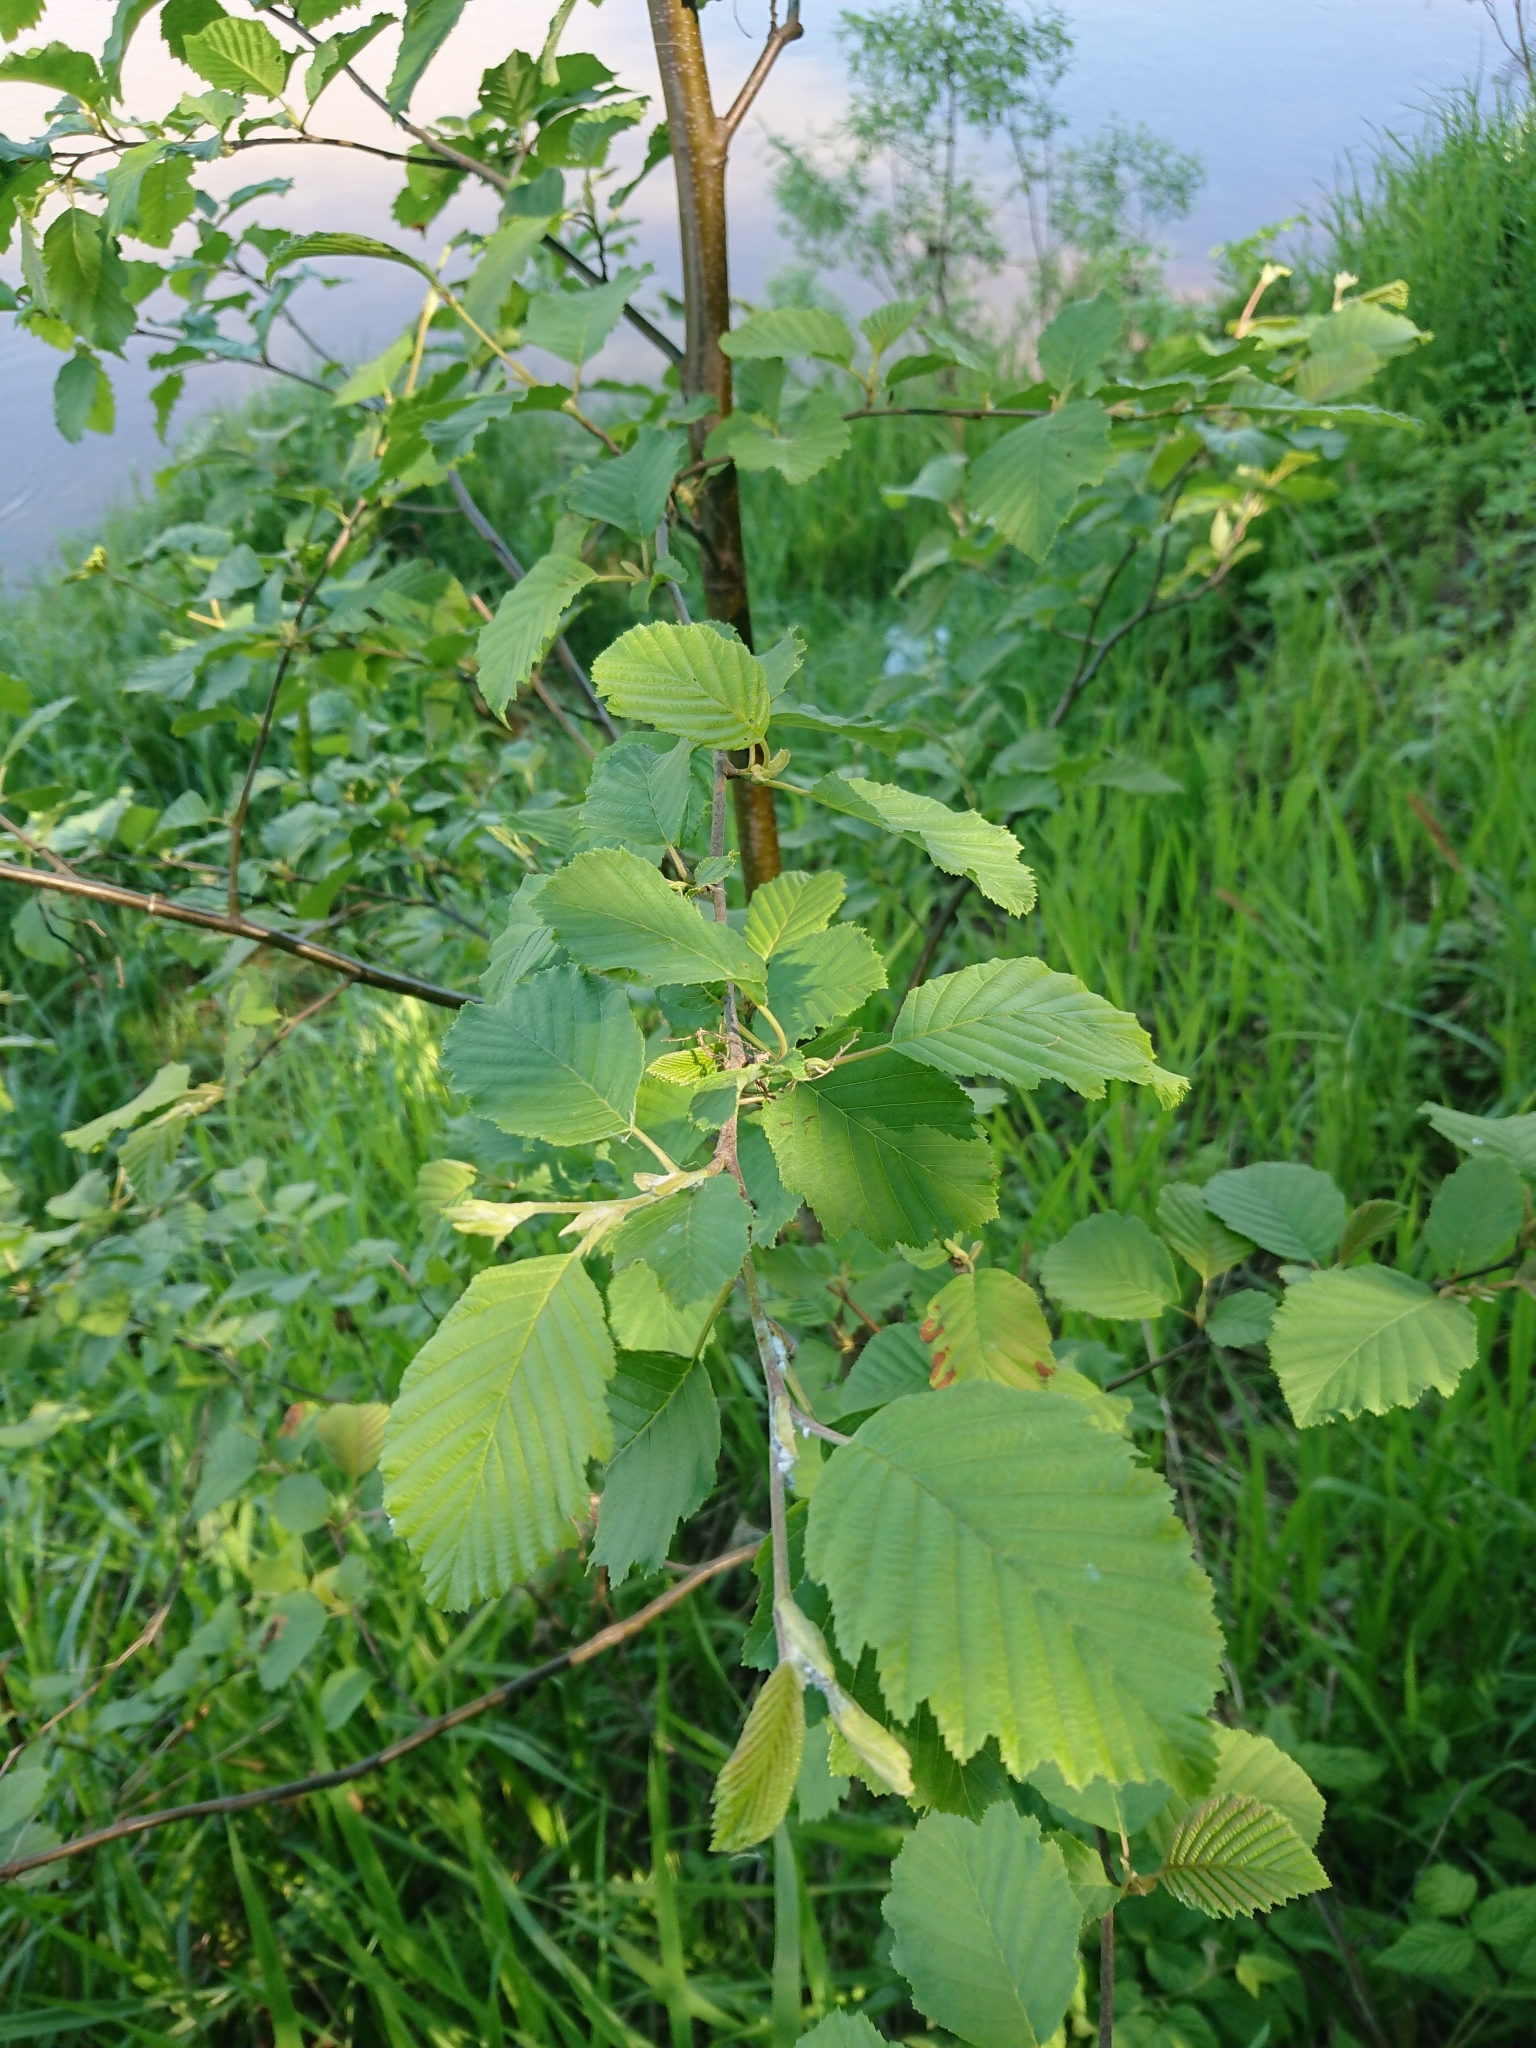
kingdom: Plantae
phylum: Tracheophyta
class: Magnoliopsida
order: Fagales
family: Betulaceae
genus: Alnus
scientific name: Alnus incana
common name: Grey alder
